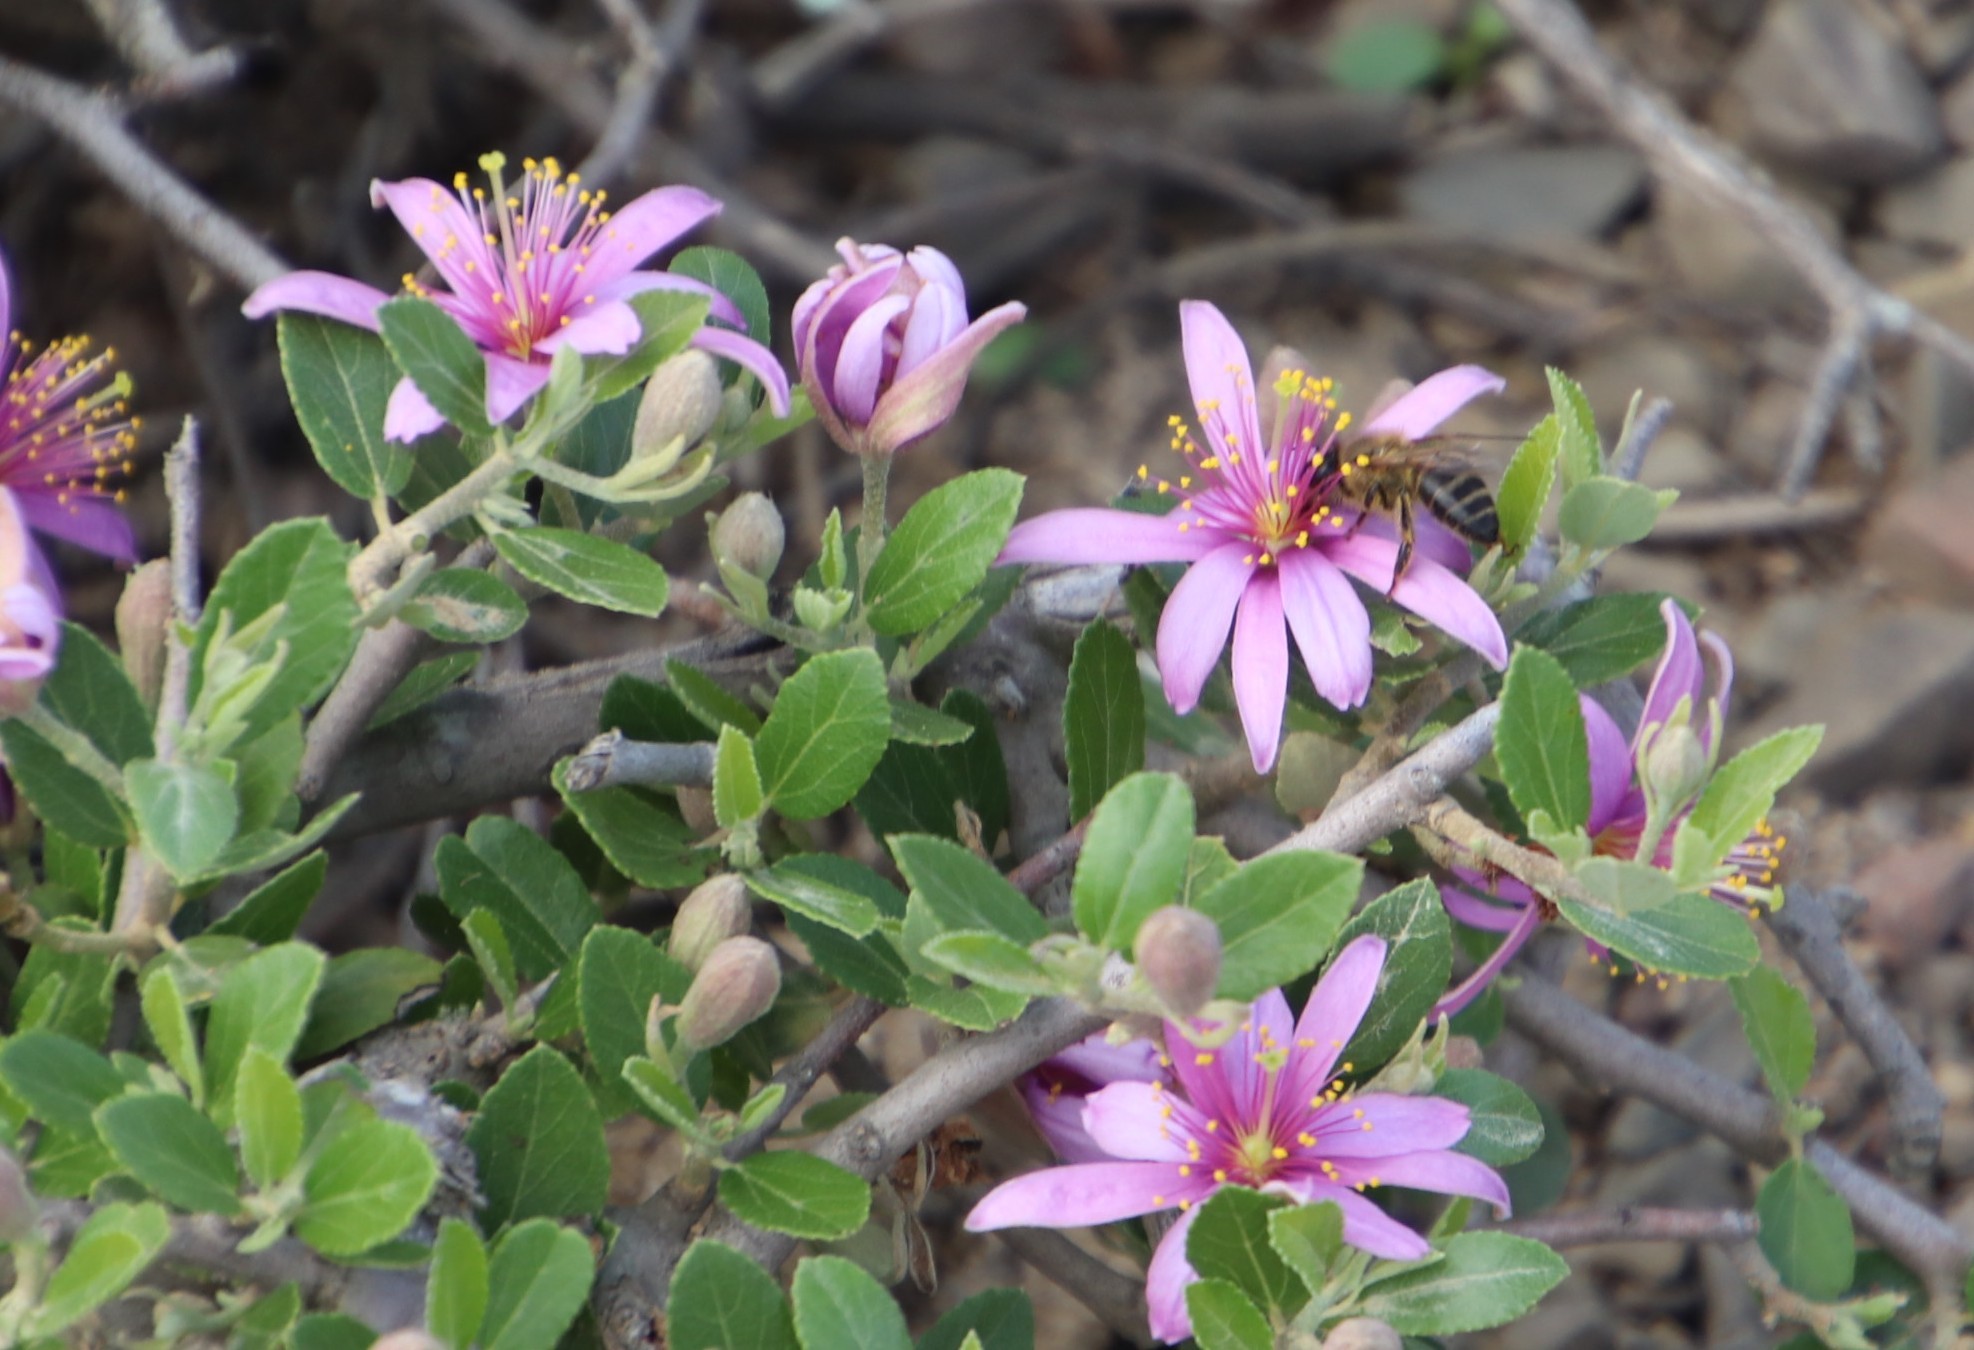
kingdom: Animalia
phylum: Arthropoda
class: Insecta
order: Hymenoptera
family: Apidae
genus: Apis
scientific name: Apis mellifera
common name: Honey bee
